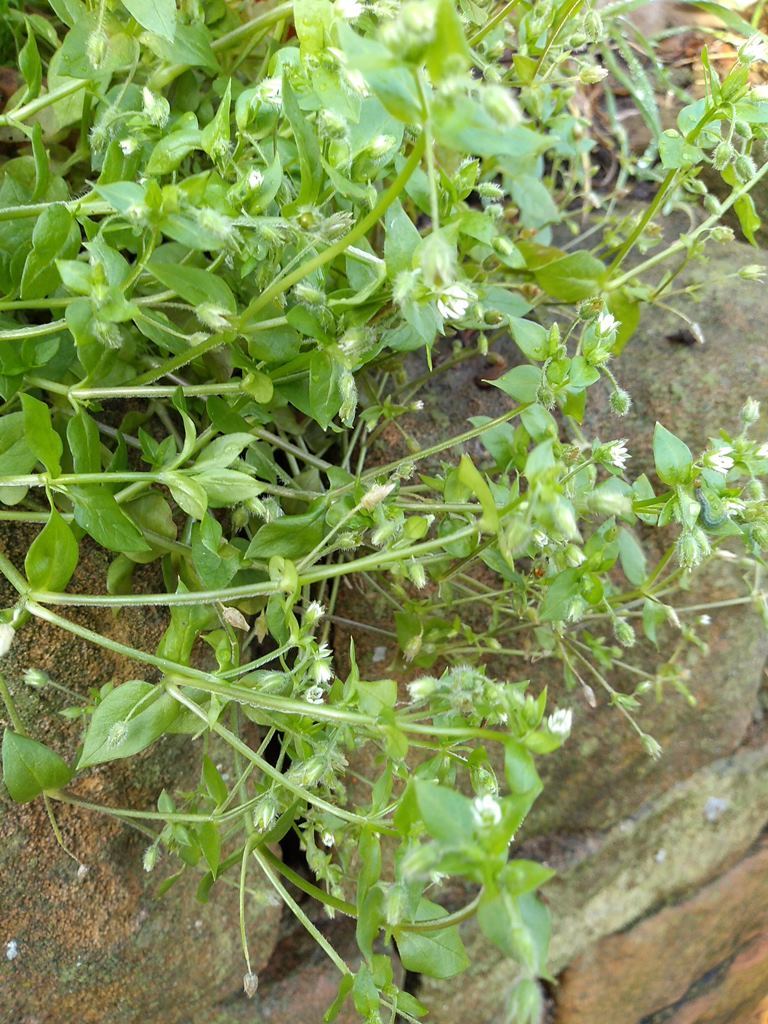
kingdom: Plantae
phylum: Tracheophyta
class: Magnoliopsida
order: Caryophyllales
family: Caryophyllaceae
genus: Stellaria
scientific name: Stellaria media
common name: Common chickweed
